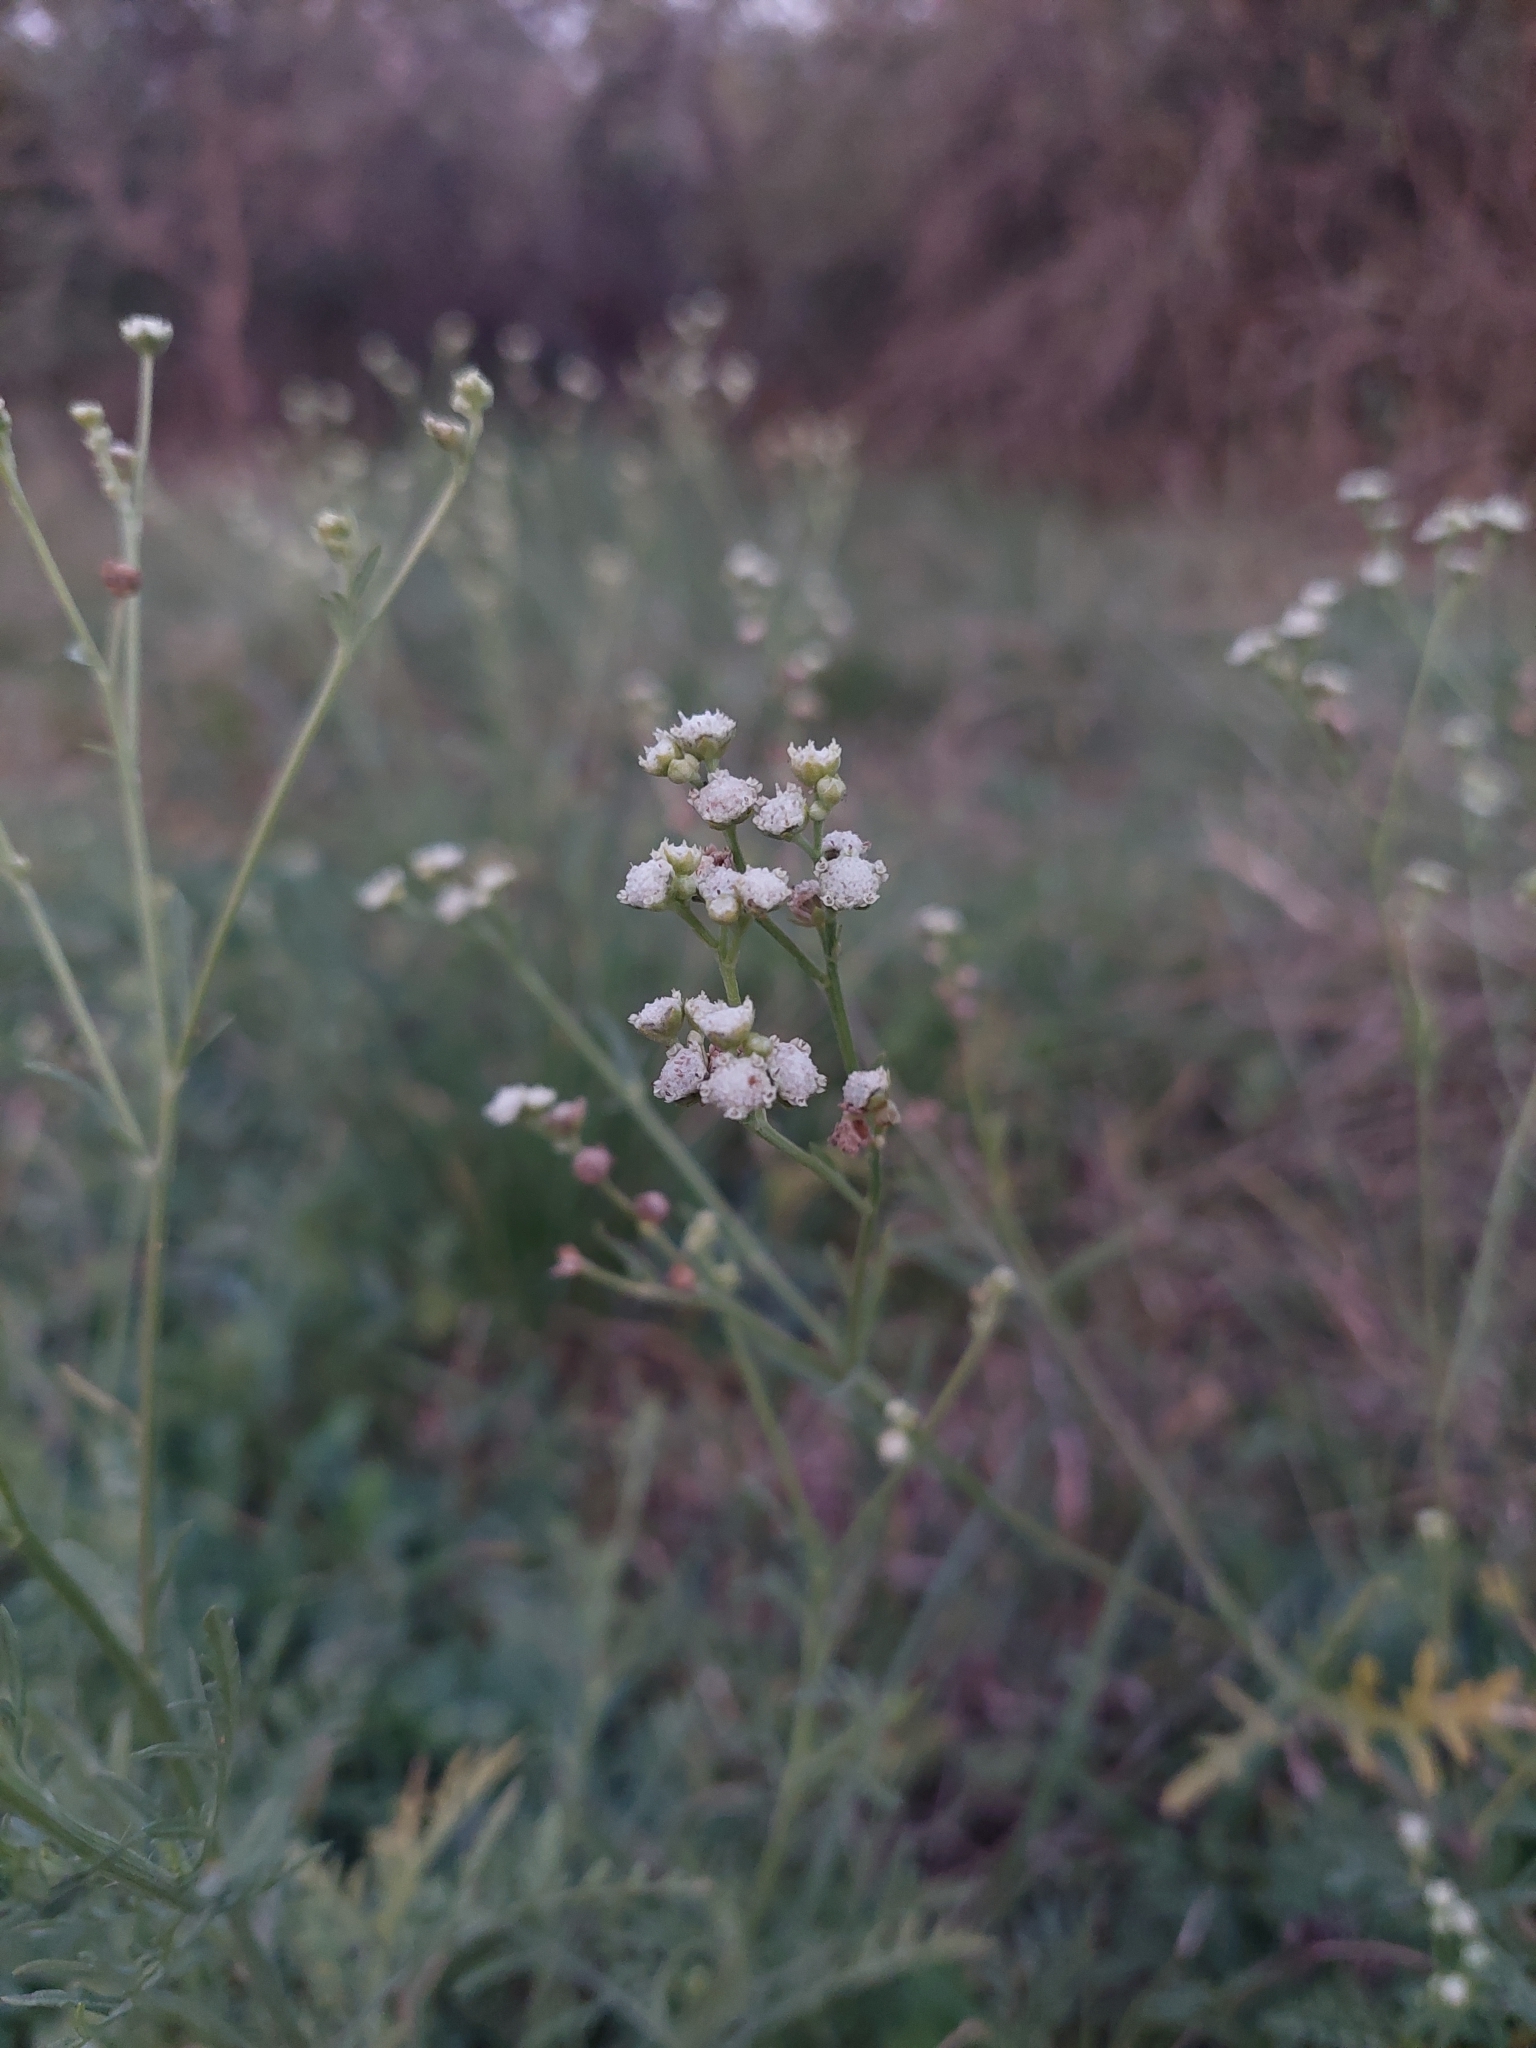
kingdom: Plantae
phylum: Tracheophyta
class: Magnoliopsida
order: Asterales
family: Asteraceae
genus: Parthenium
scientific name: Parthenium hysterophorus
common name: Santa maria feverfew
